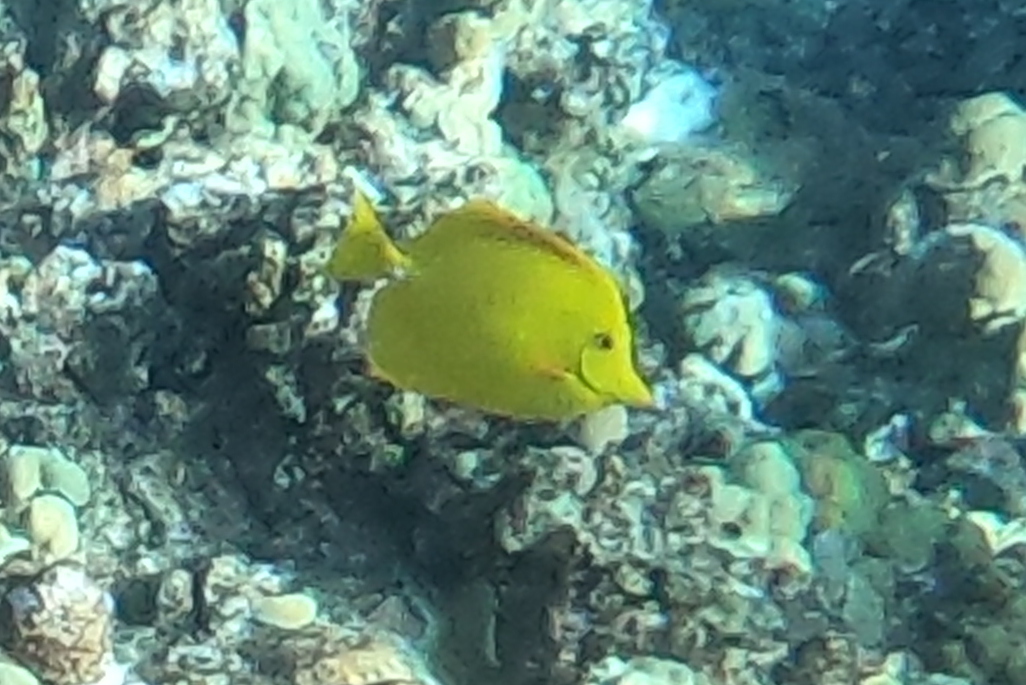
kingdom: Animalia
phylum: Chordata
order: Perciformes
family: Acanthuridae
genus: Zebrasoma
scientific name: Zebrasoma flavescens
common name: Yellow tang
